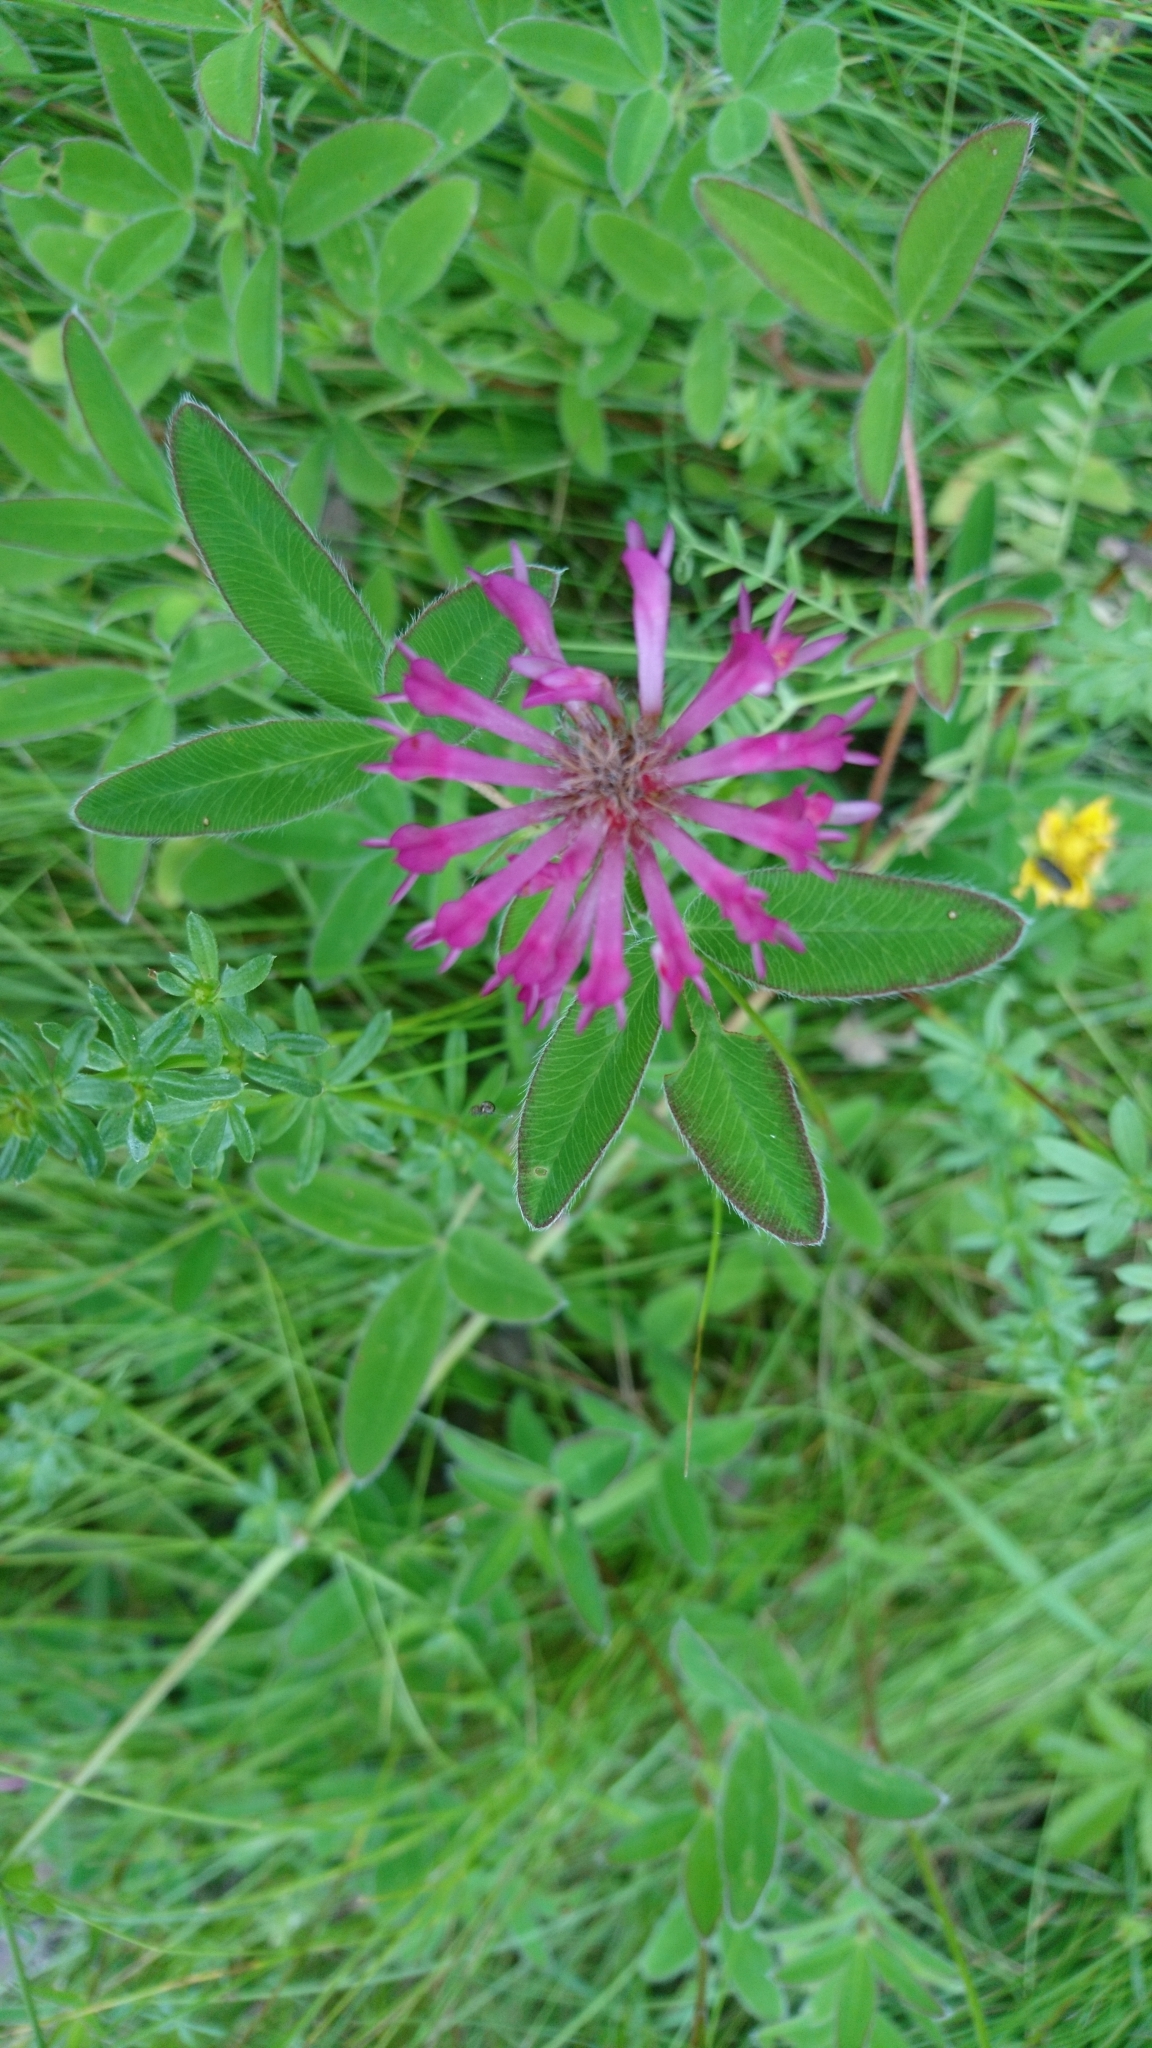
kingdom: Plantae
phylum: Tracheophyta
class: Magnoliopsida
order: Fabales
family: Fabaceae
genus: Trifolium
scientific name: Trifolium medium
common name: Zigzag clover
